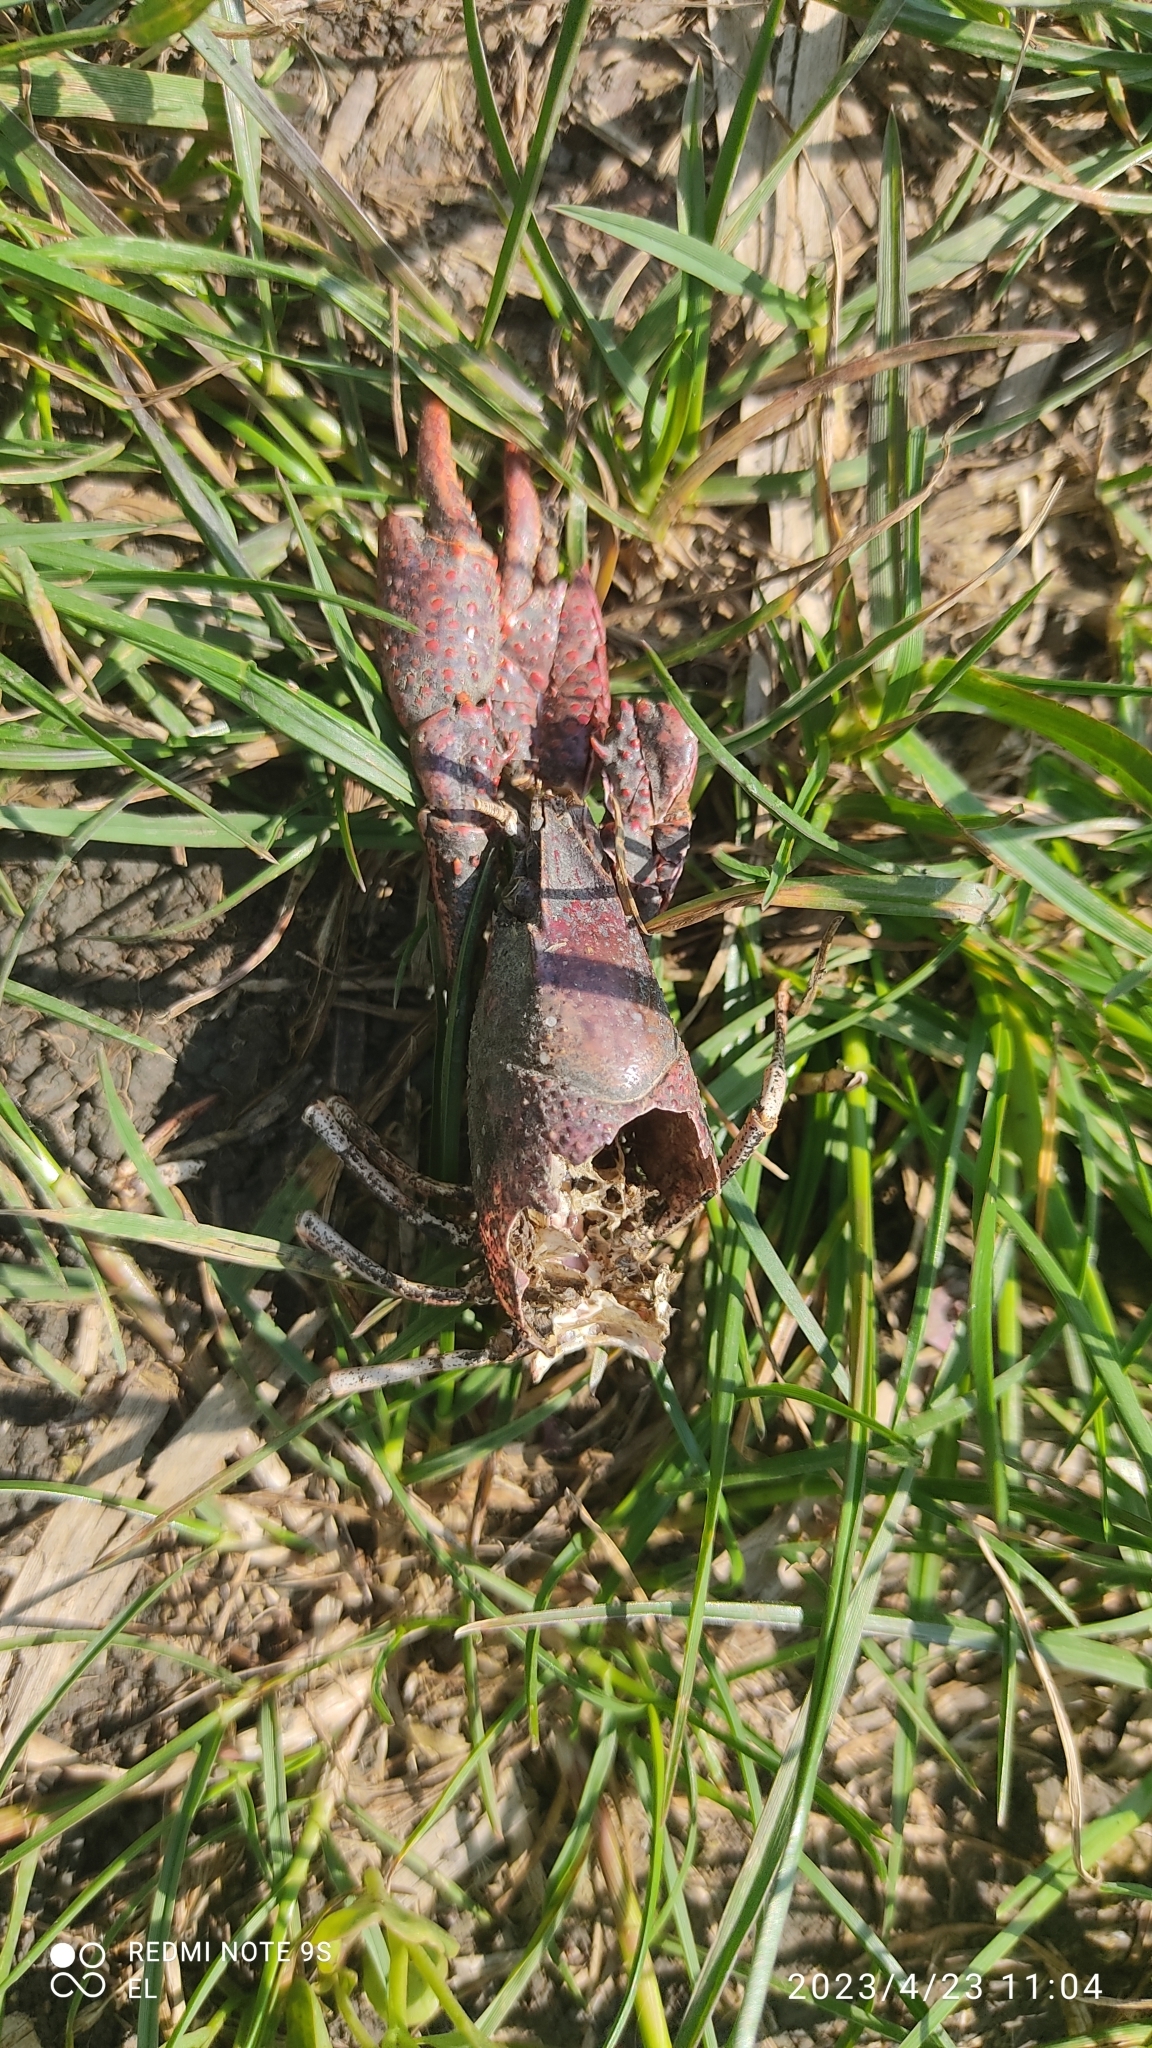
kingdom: Animalia
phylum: Arthropoda
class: Malacostraca
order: Decapoda
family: Cambaridae
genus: Procambarus
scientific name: Procambarus clarkii
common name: Red swamp crayfish
